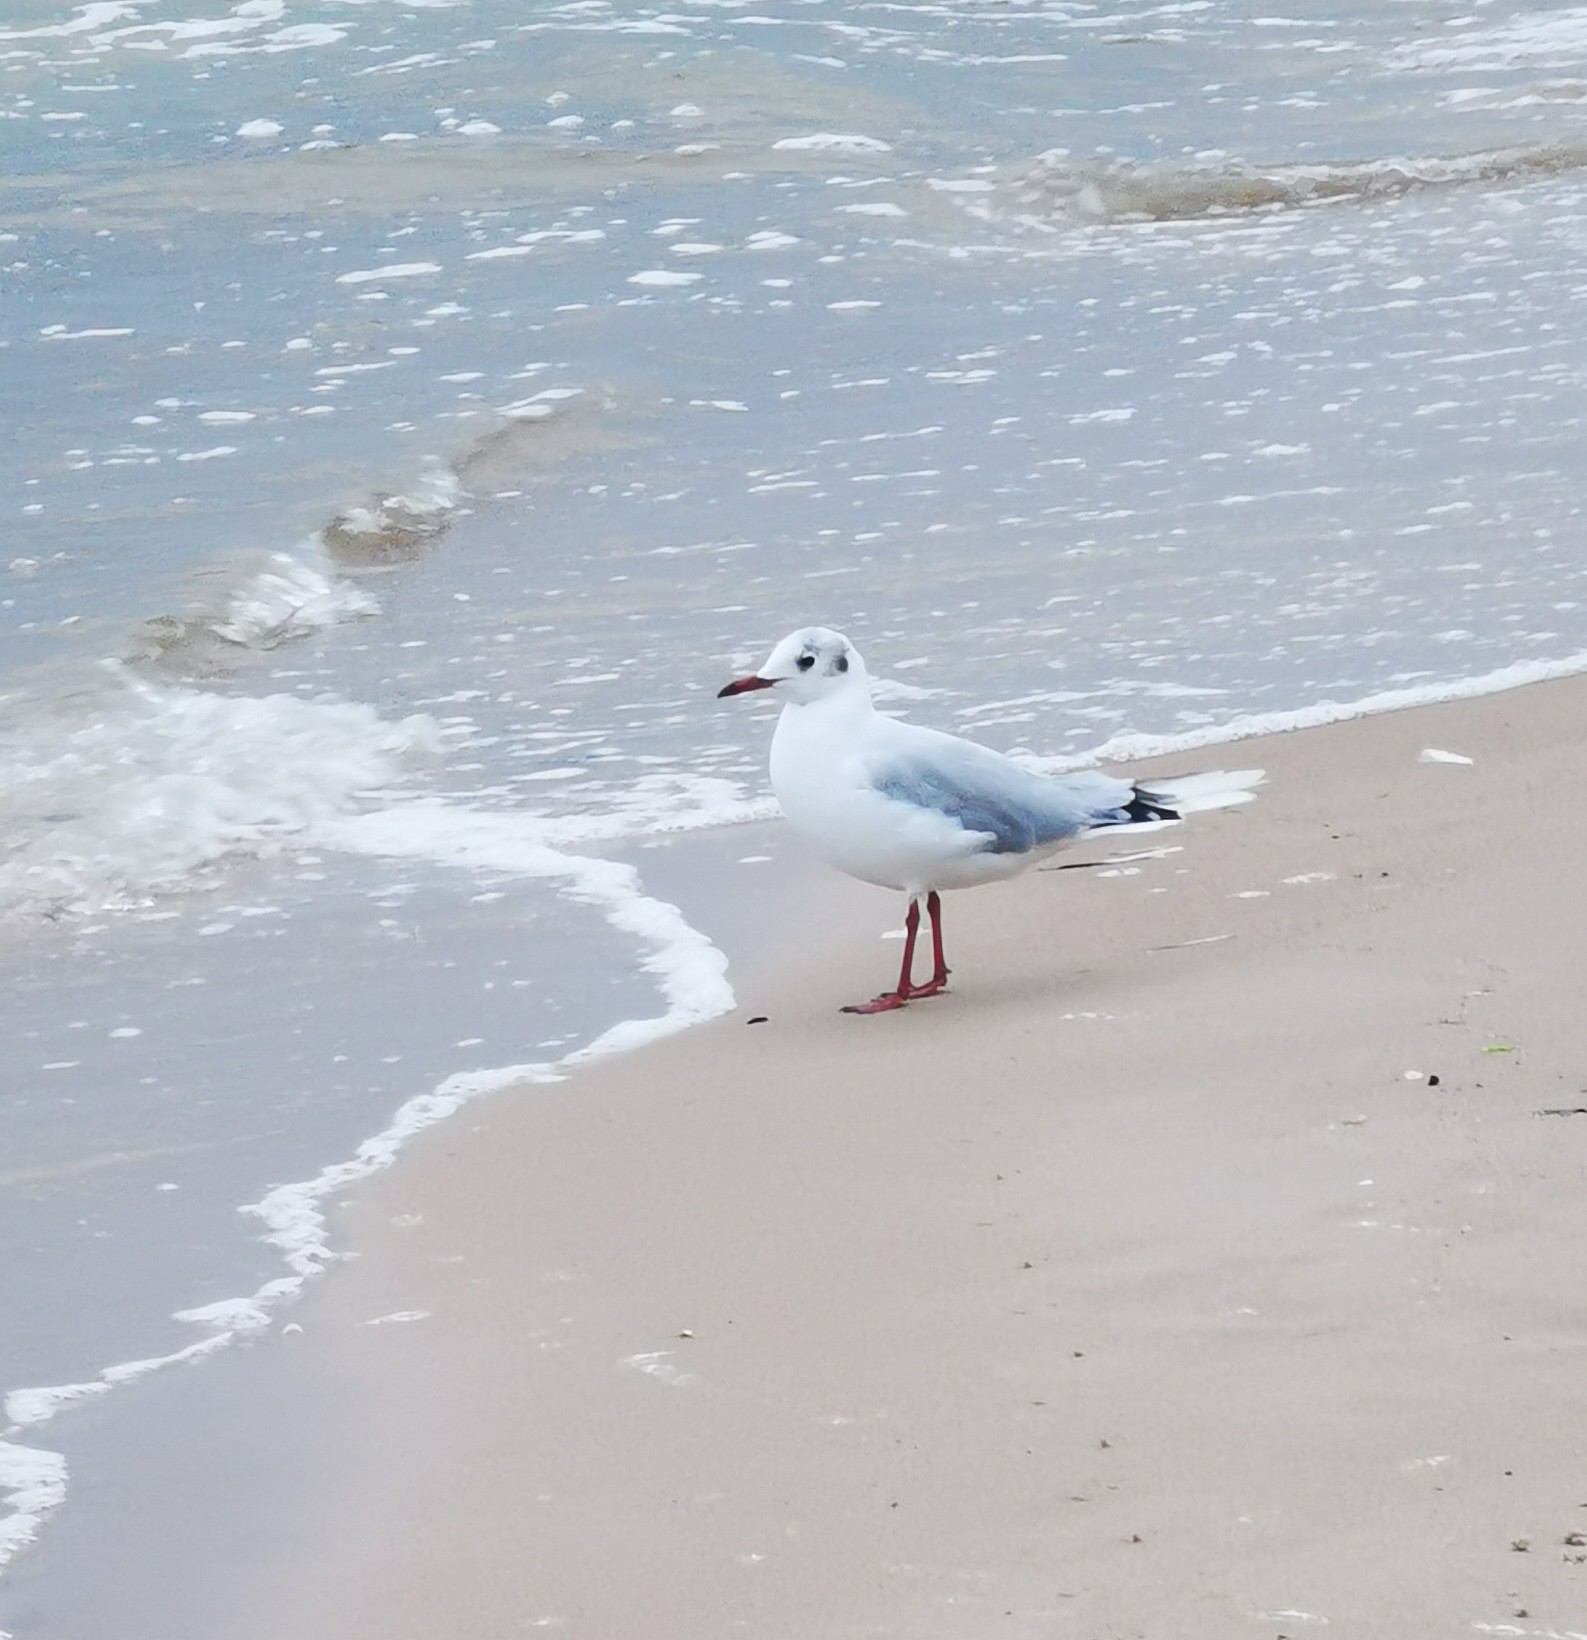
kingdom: Animalia
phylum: Chordata
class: Aves
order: Charadriiformes
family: Laridae
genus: Chroicocephalus
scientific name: Chroicocephalus ridibundus
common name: Black-headed gull
